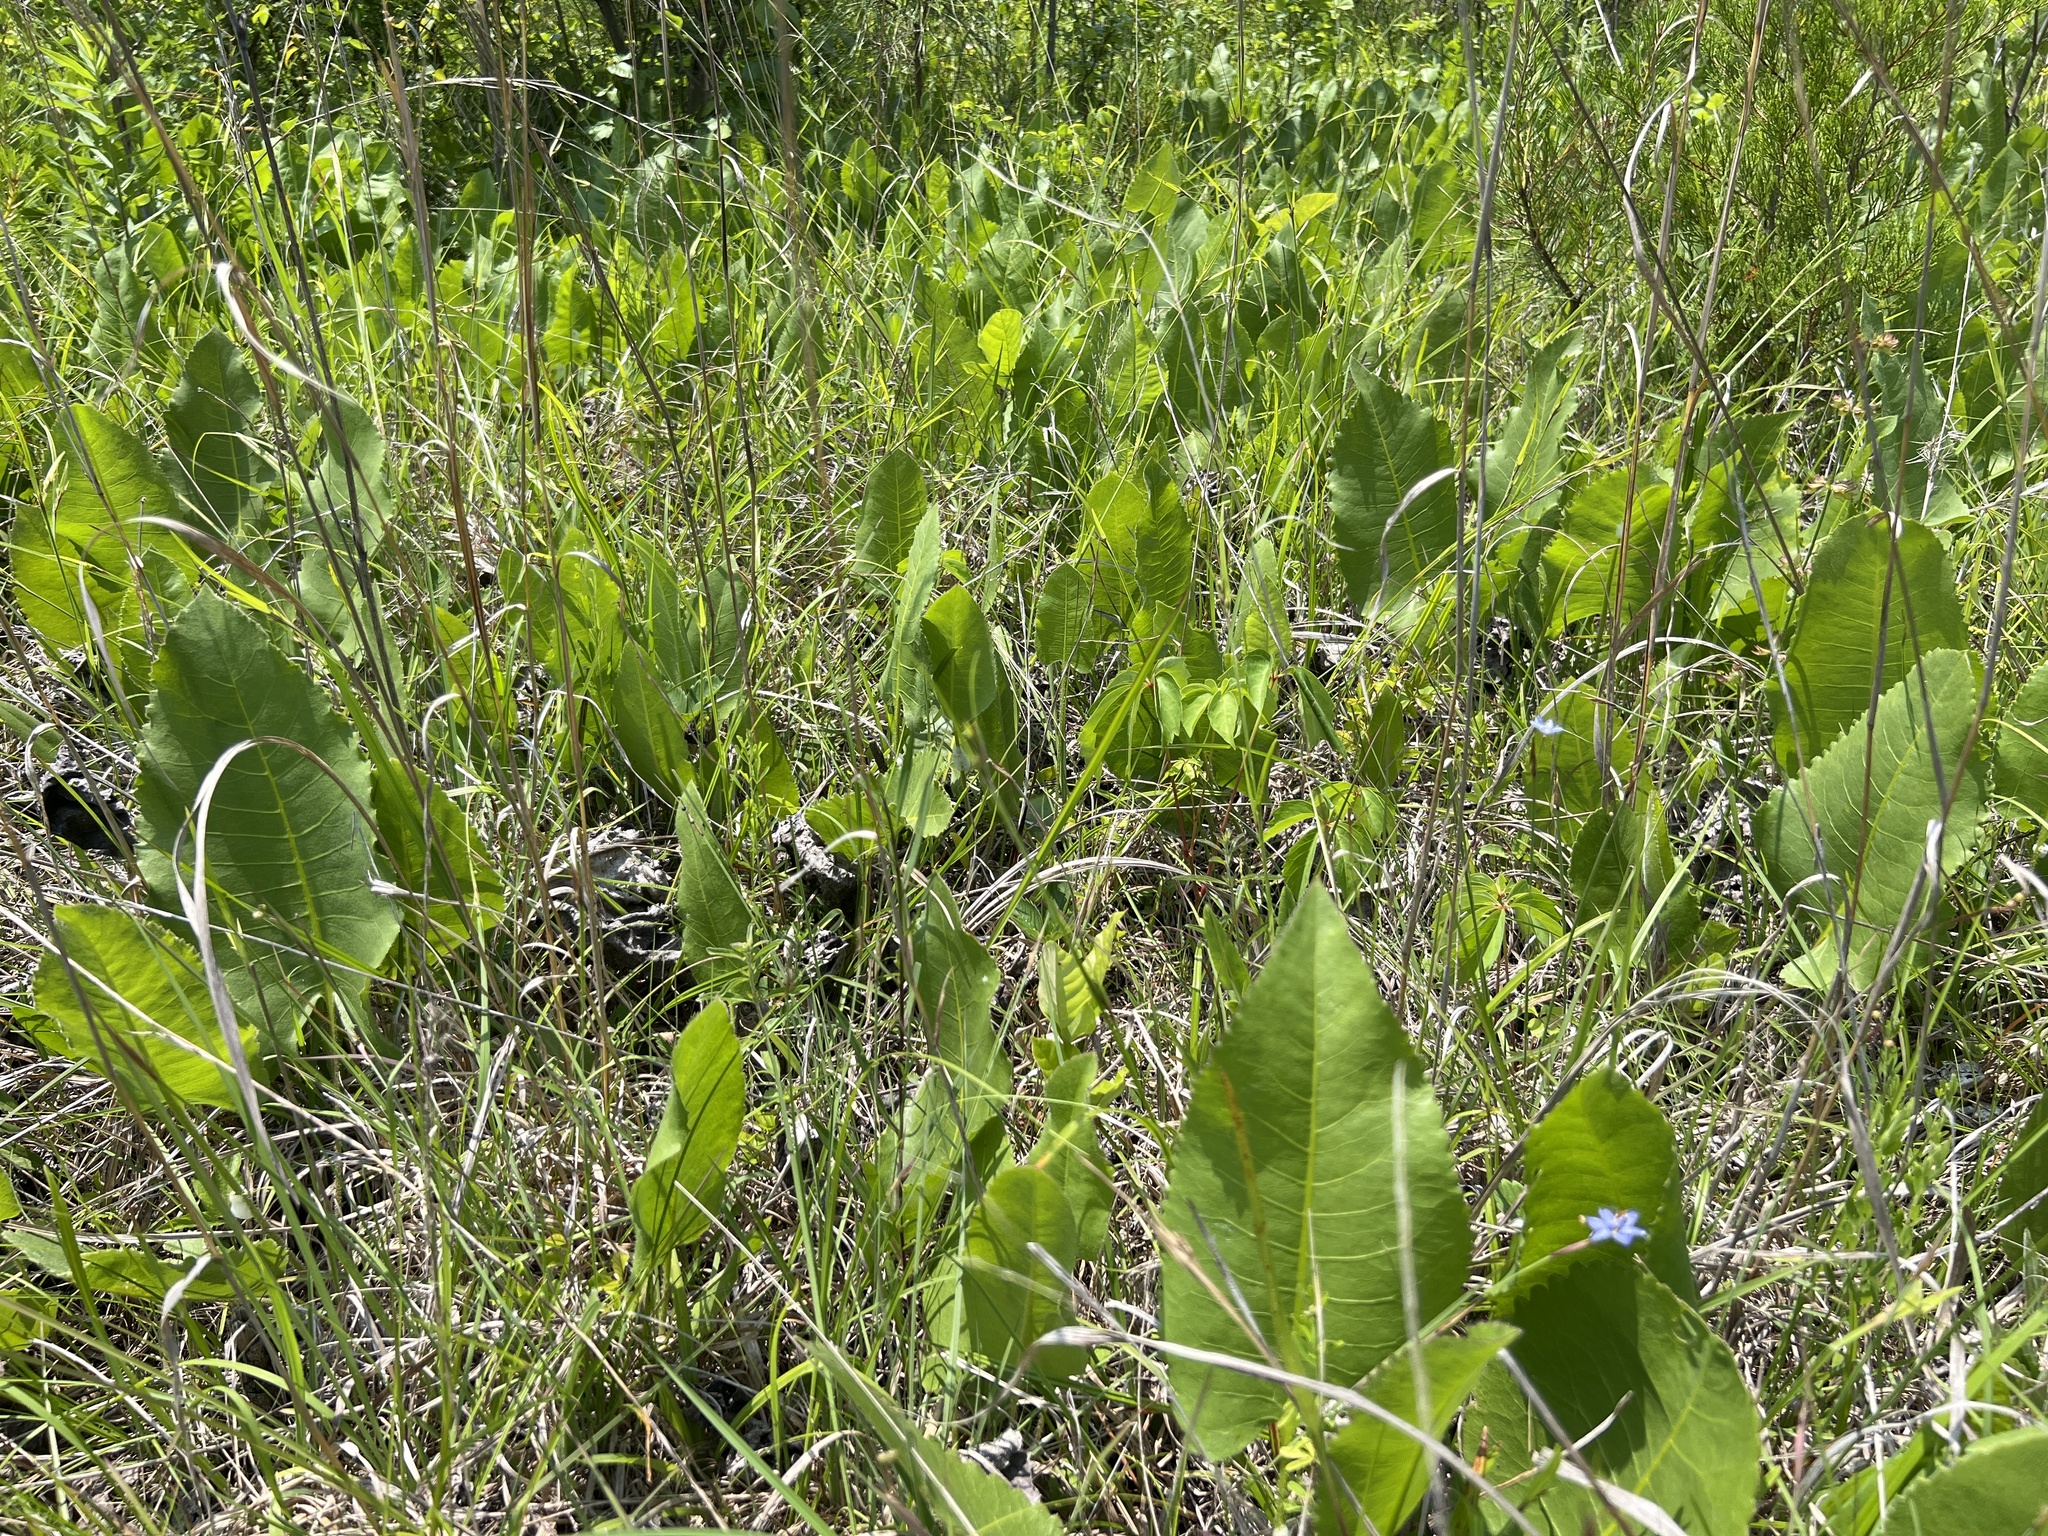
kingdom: Plantae
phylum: Tracheophyta
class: Magnoliopsida
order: Asterales
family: Asteraceae
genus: Silphium
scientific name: Silphium terebinthinaceum
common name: Basal-leaf rosinweed
